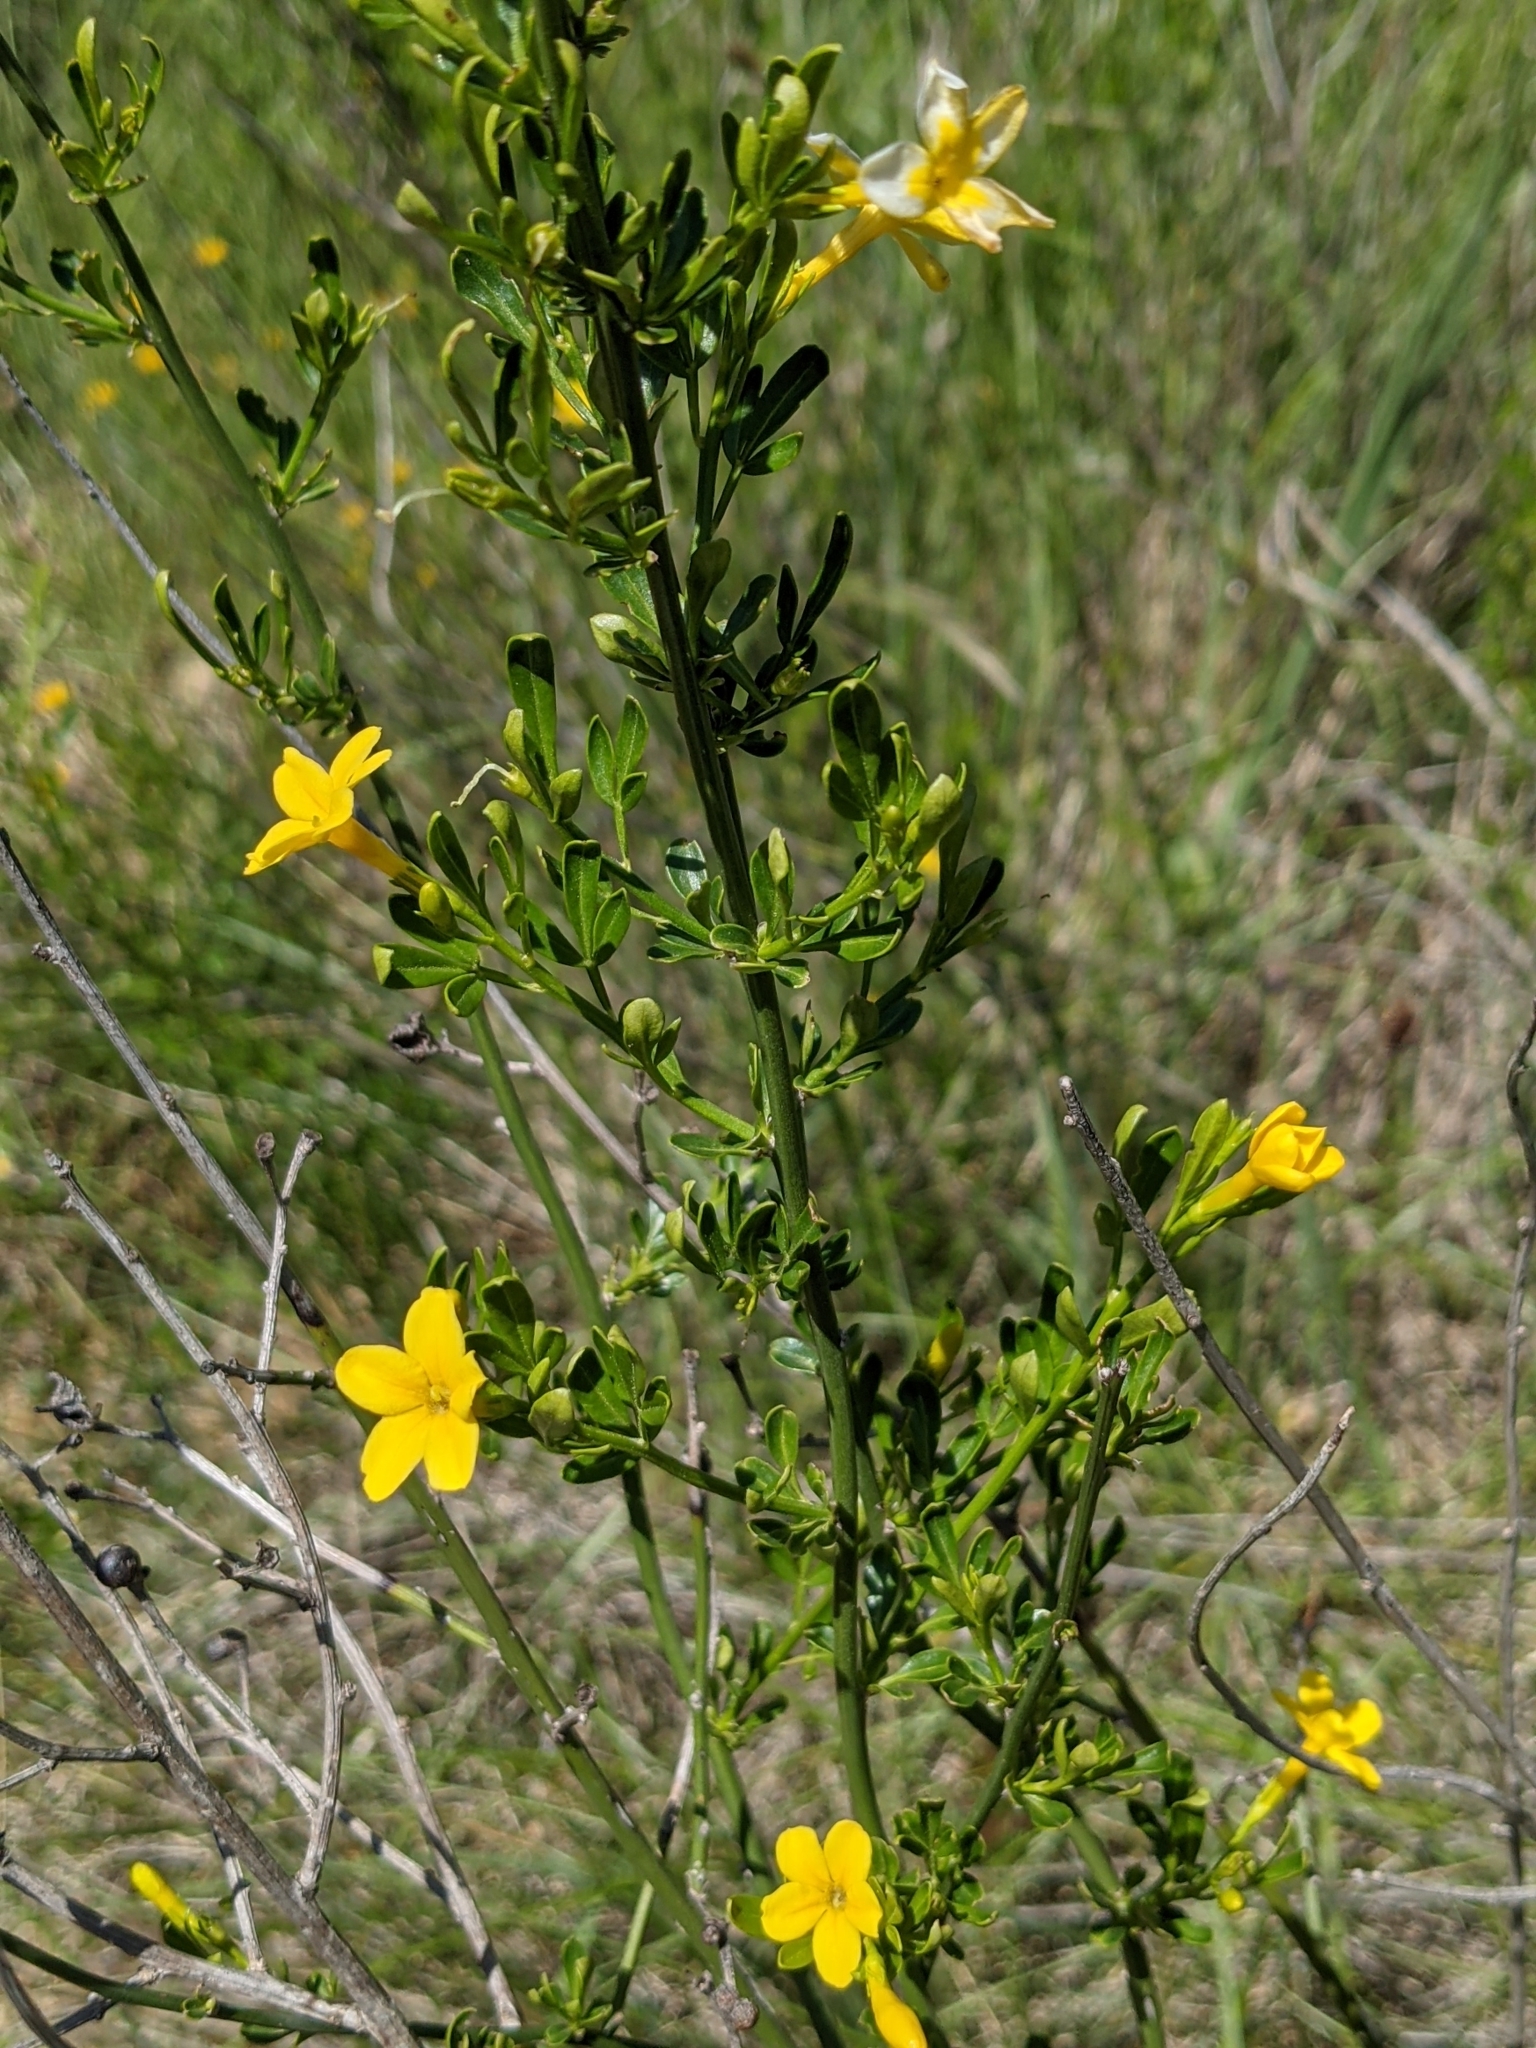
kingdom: Plantae
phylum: Tracheophyta
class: Magnoliopsida
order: Lamiales
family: Oleaceae
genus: Chrysojasminum
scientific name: Chrysojasminum fruticans
